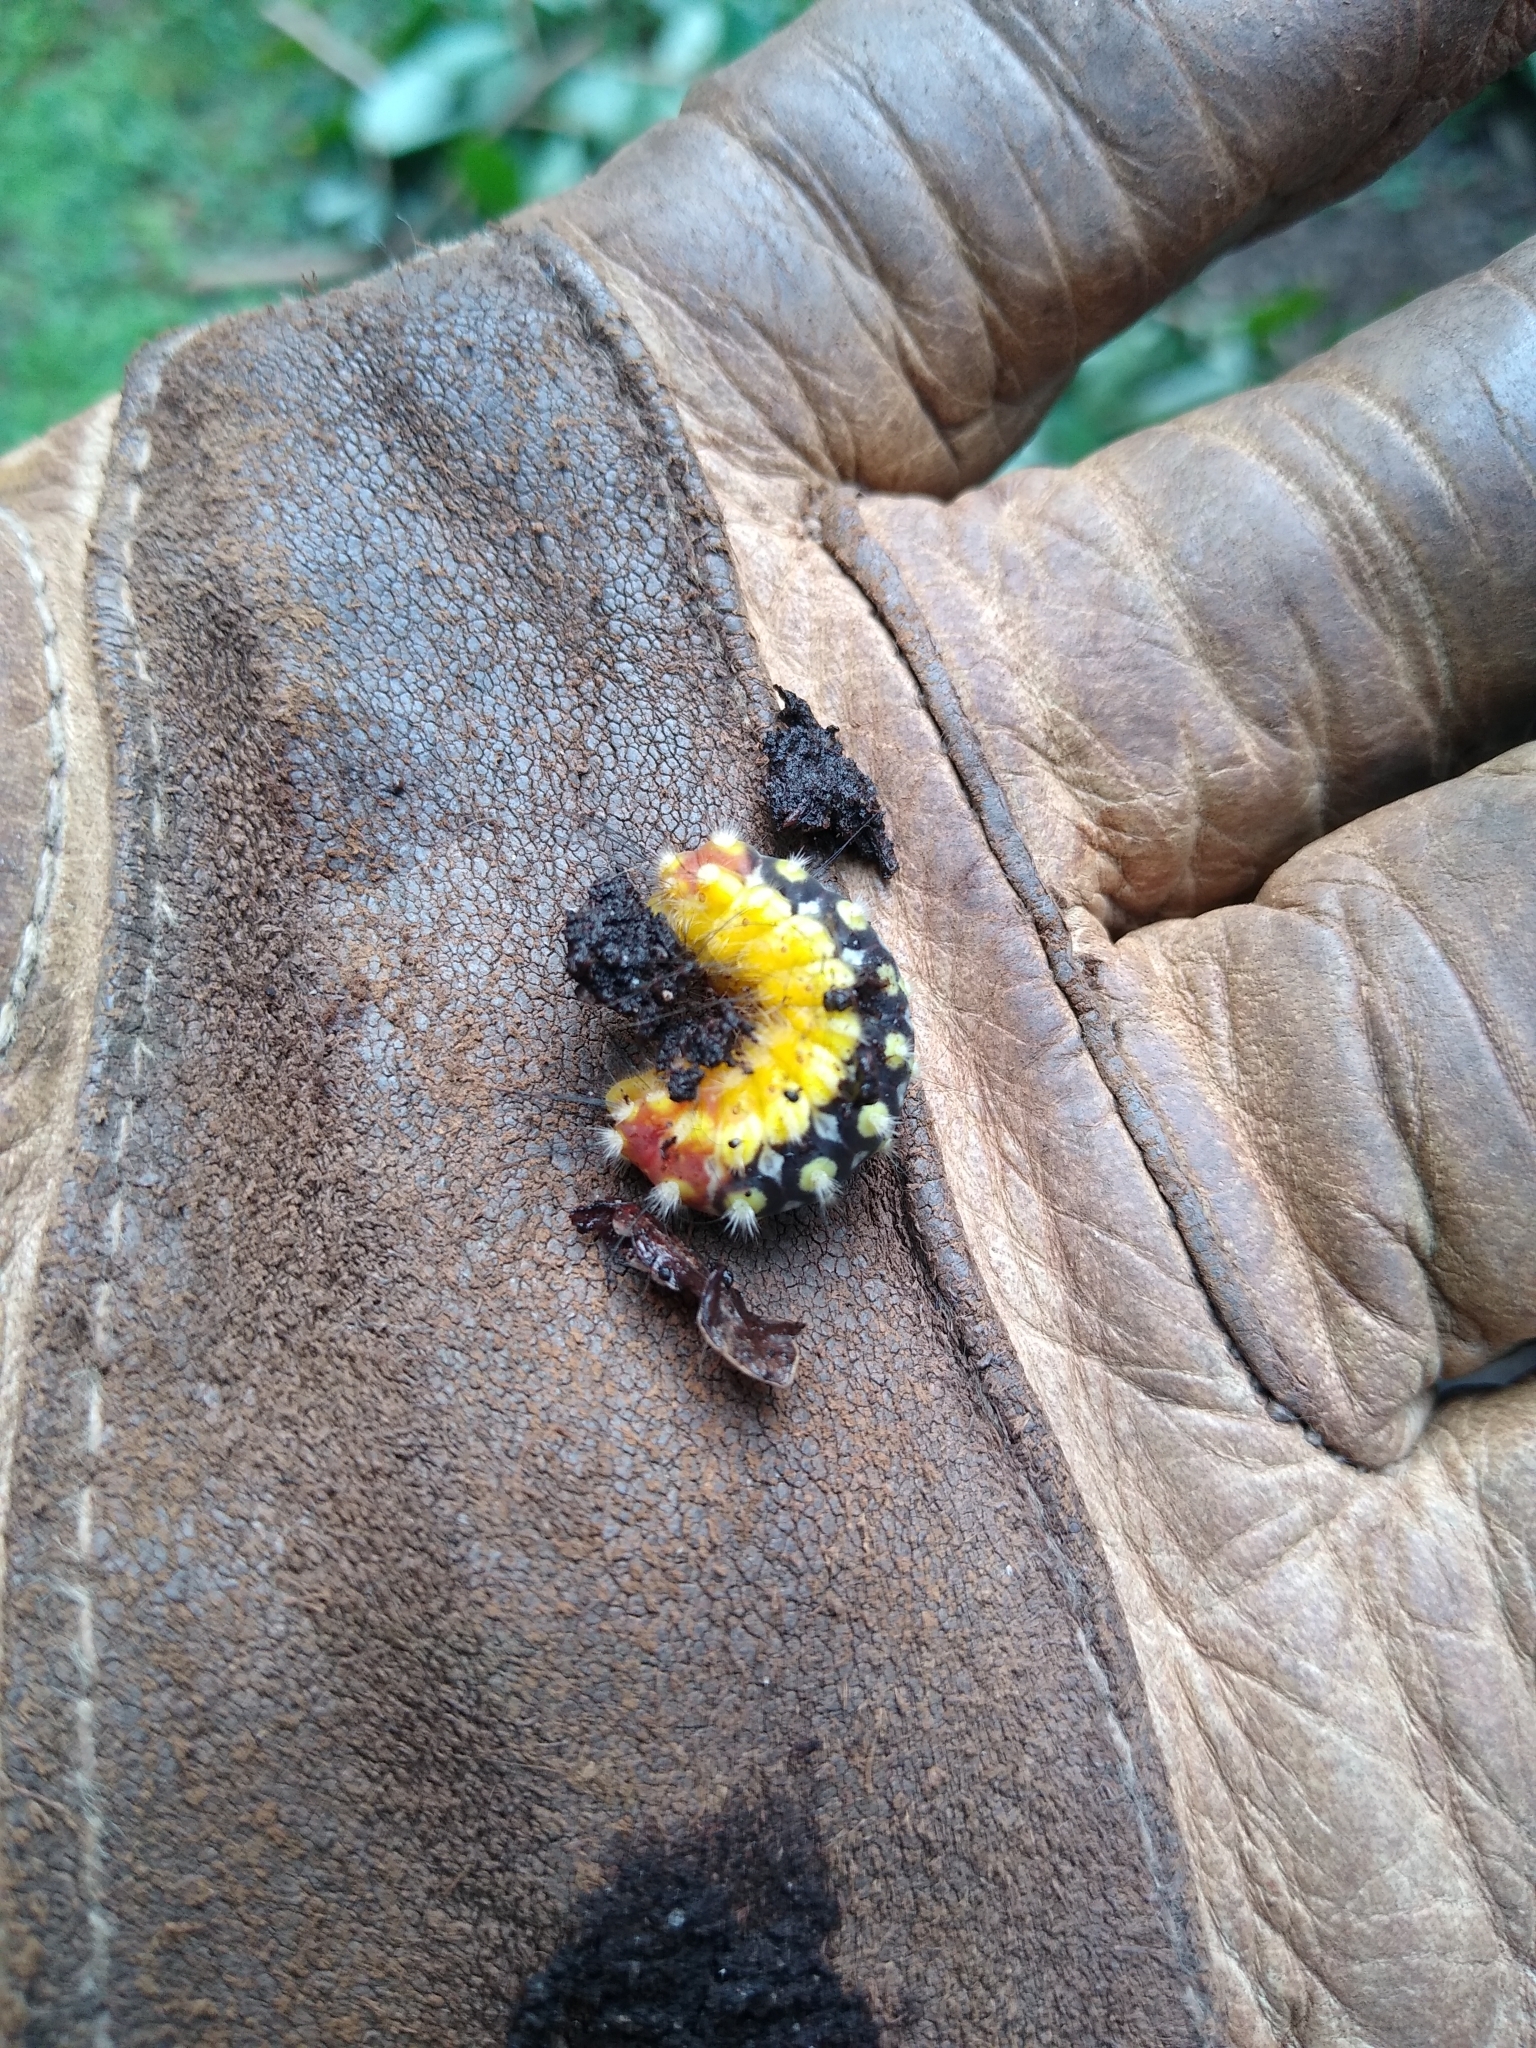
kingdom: Animalia
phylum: Arthropoda
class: Insecta
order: Lepidoptera
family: Megalopygidae
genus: Norape
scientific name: Norape cretata
